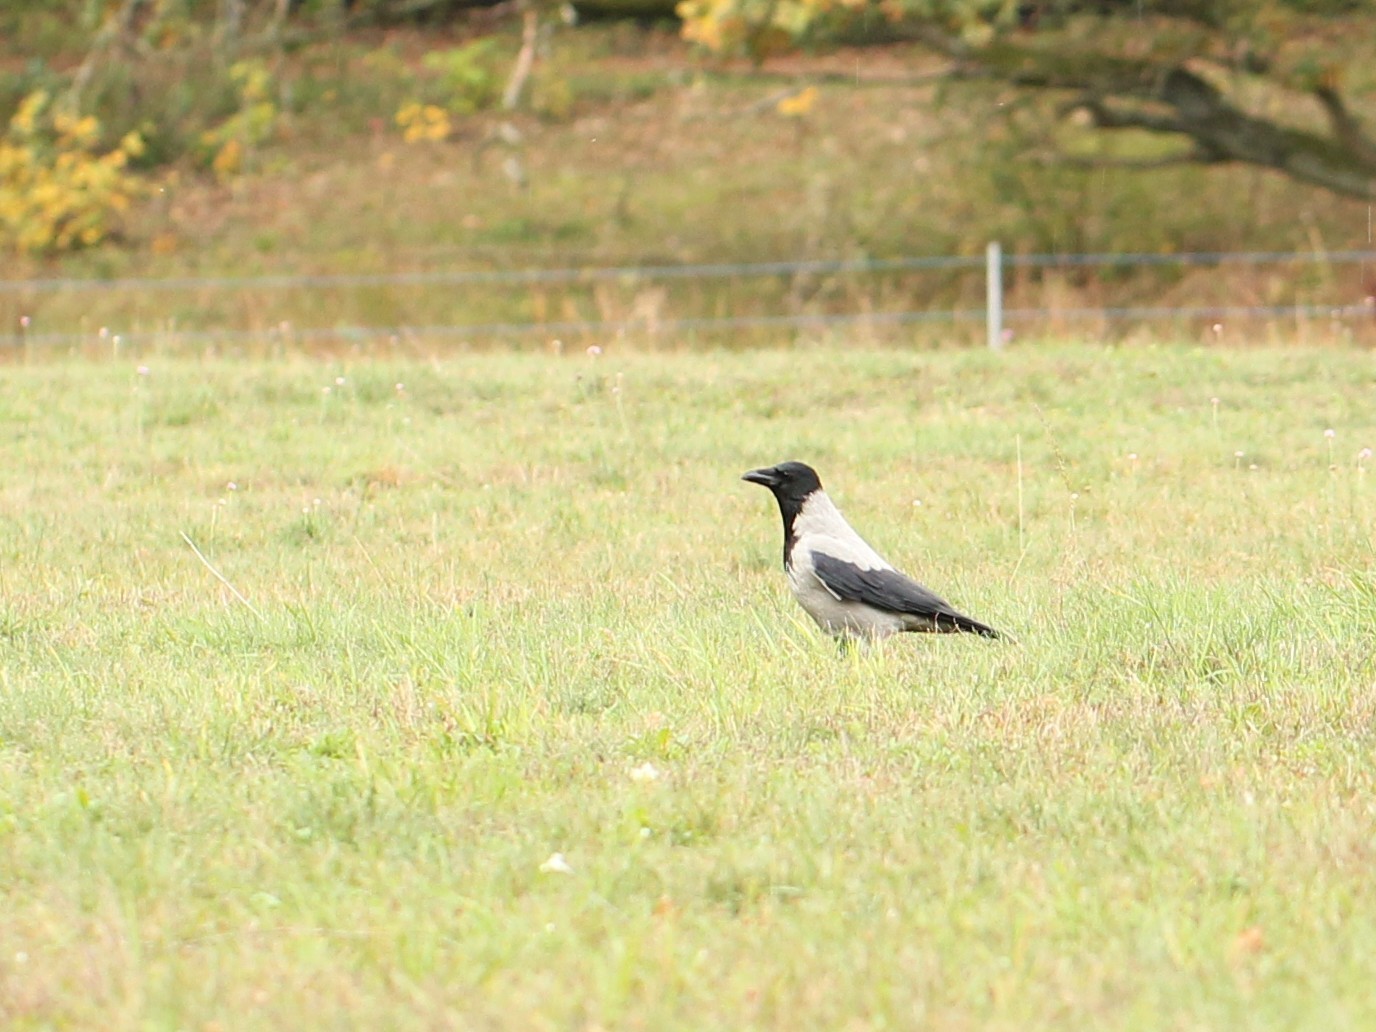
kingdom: Animalia
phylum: Chordata
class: Aves
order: Passeriformes
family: Corvidae
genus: Corvus
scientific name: Corvus cornix
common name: Hooded crow
